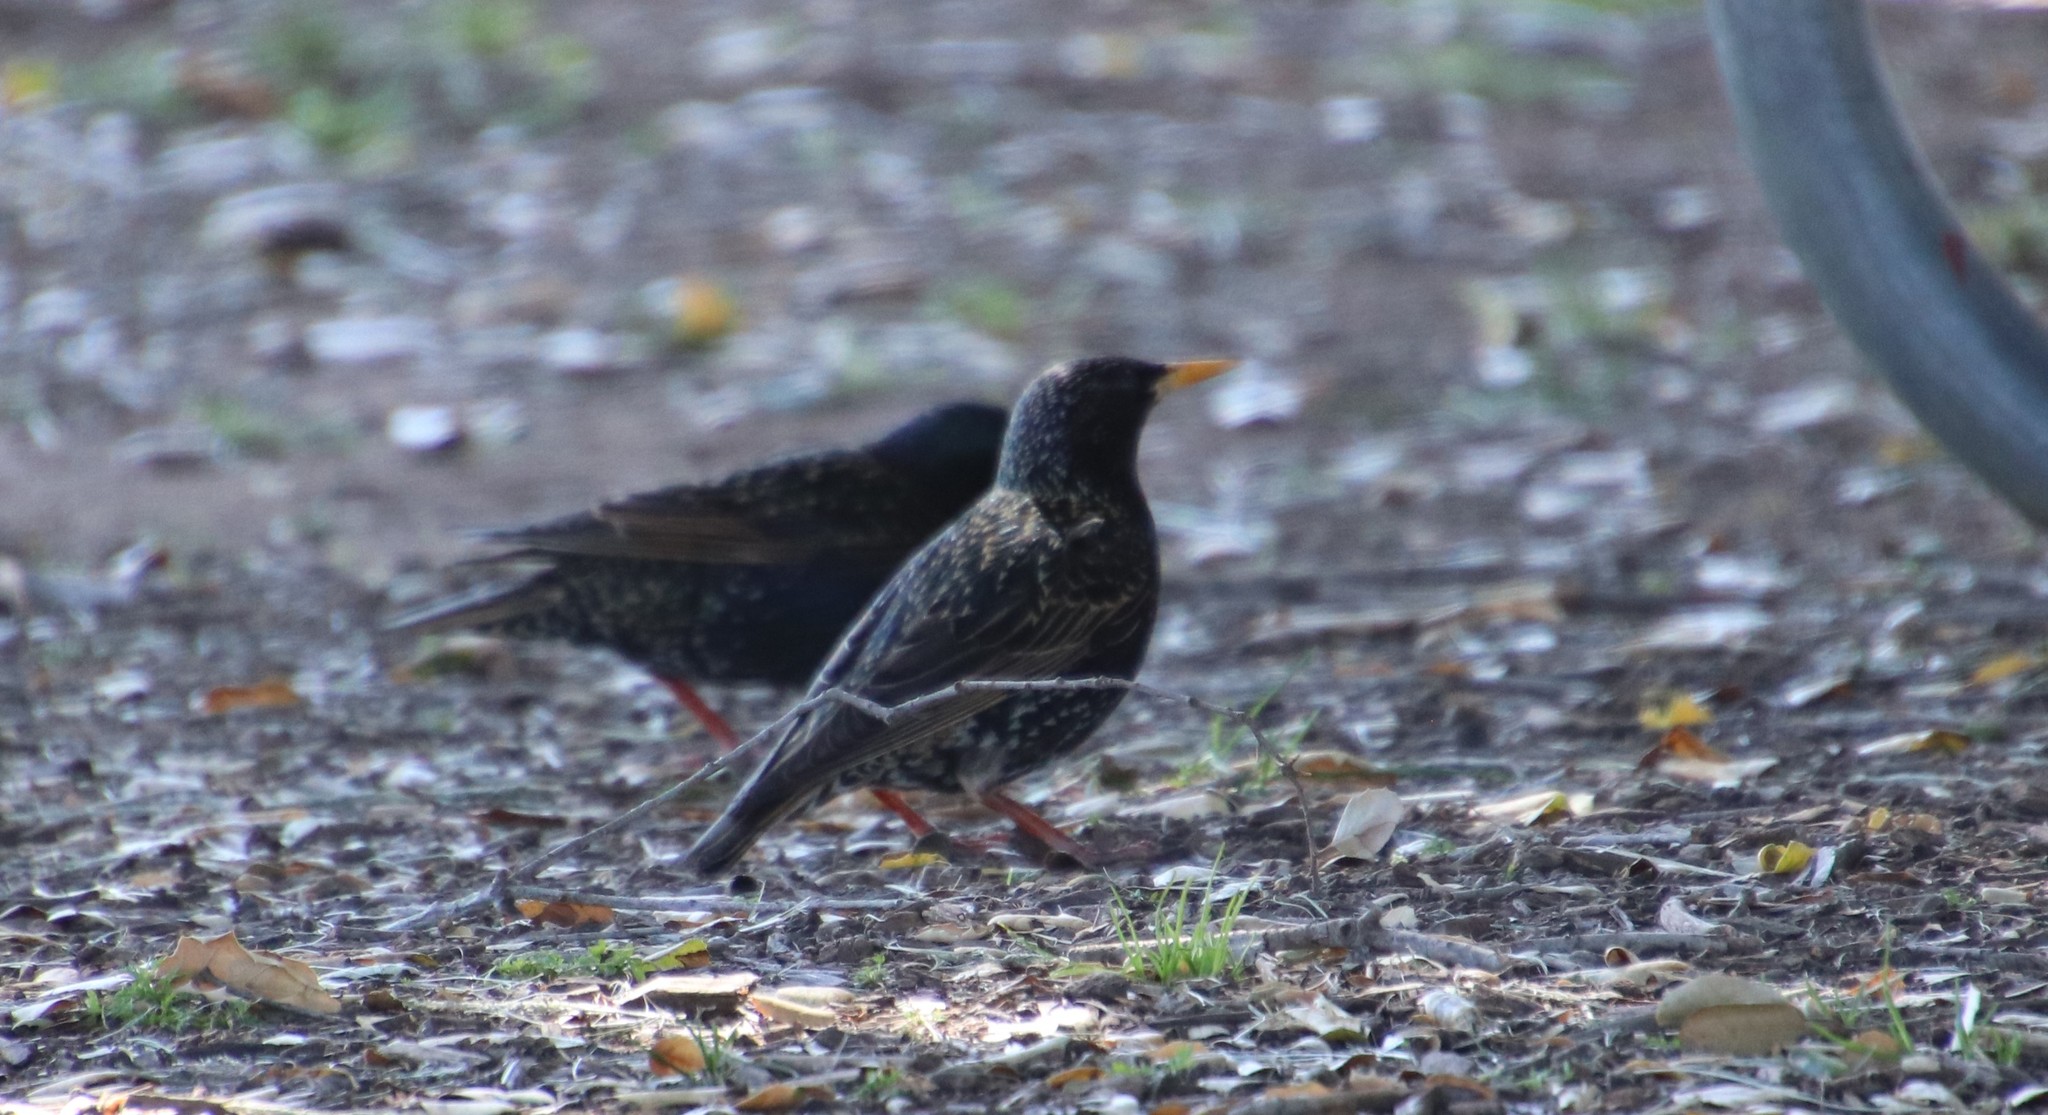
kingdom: Animalia
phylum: Chordata
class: Aves
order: Passeriformes
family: Sturnidae
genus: Sturnus
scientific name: Sturnus vulgaris
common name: Common starling
